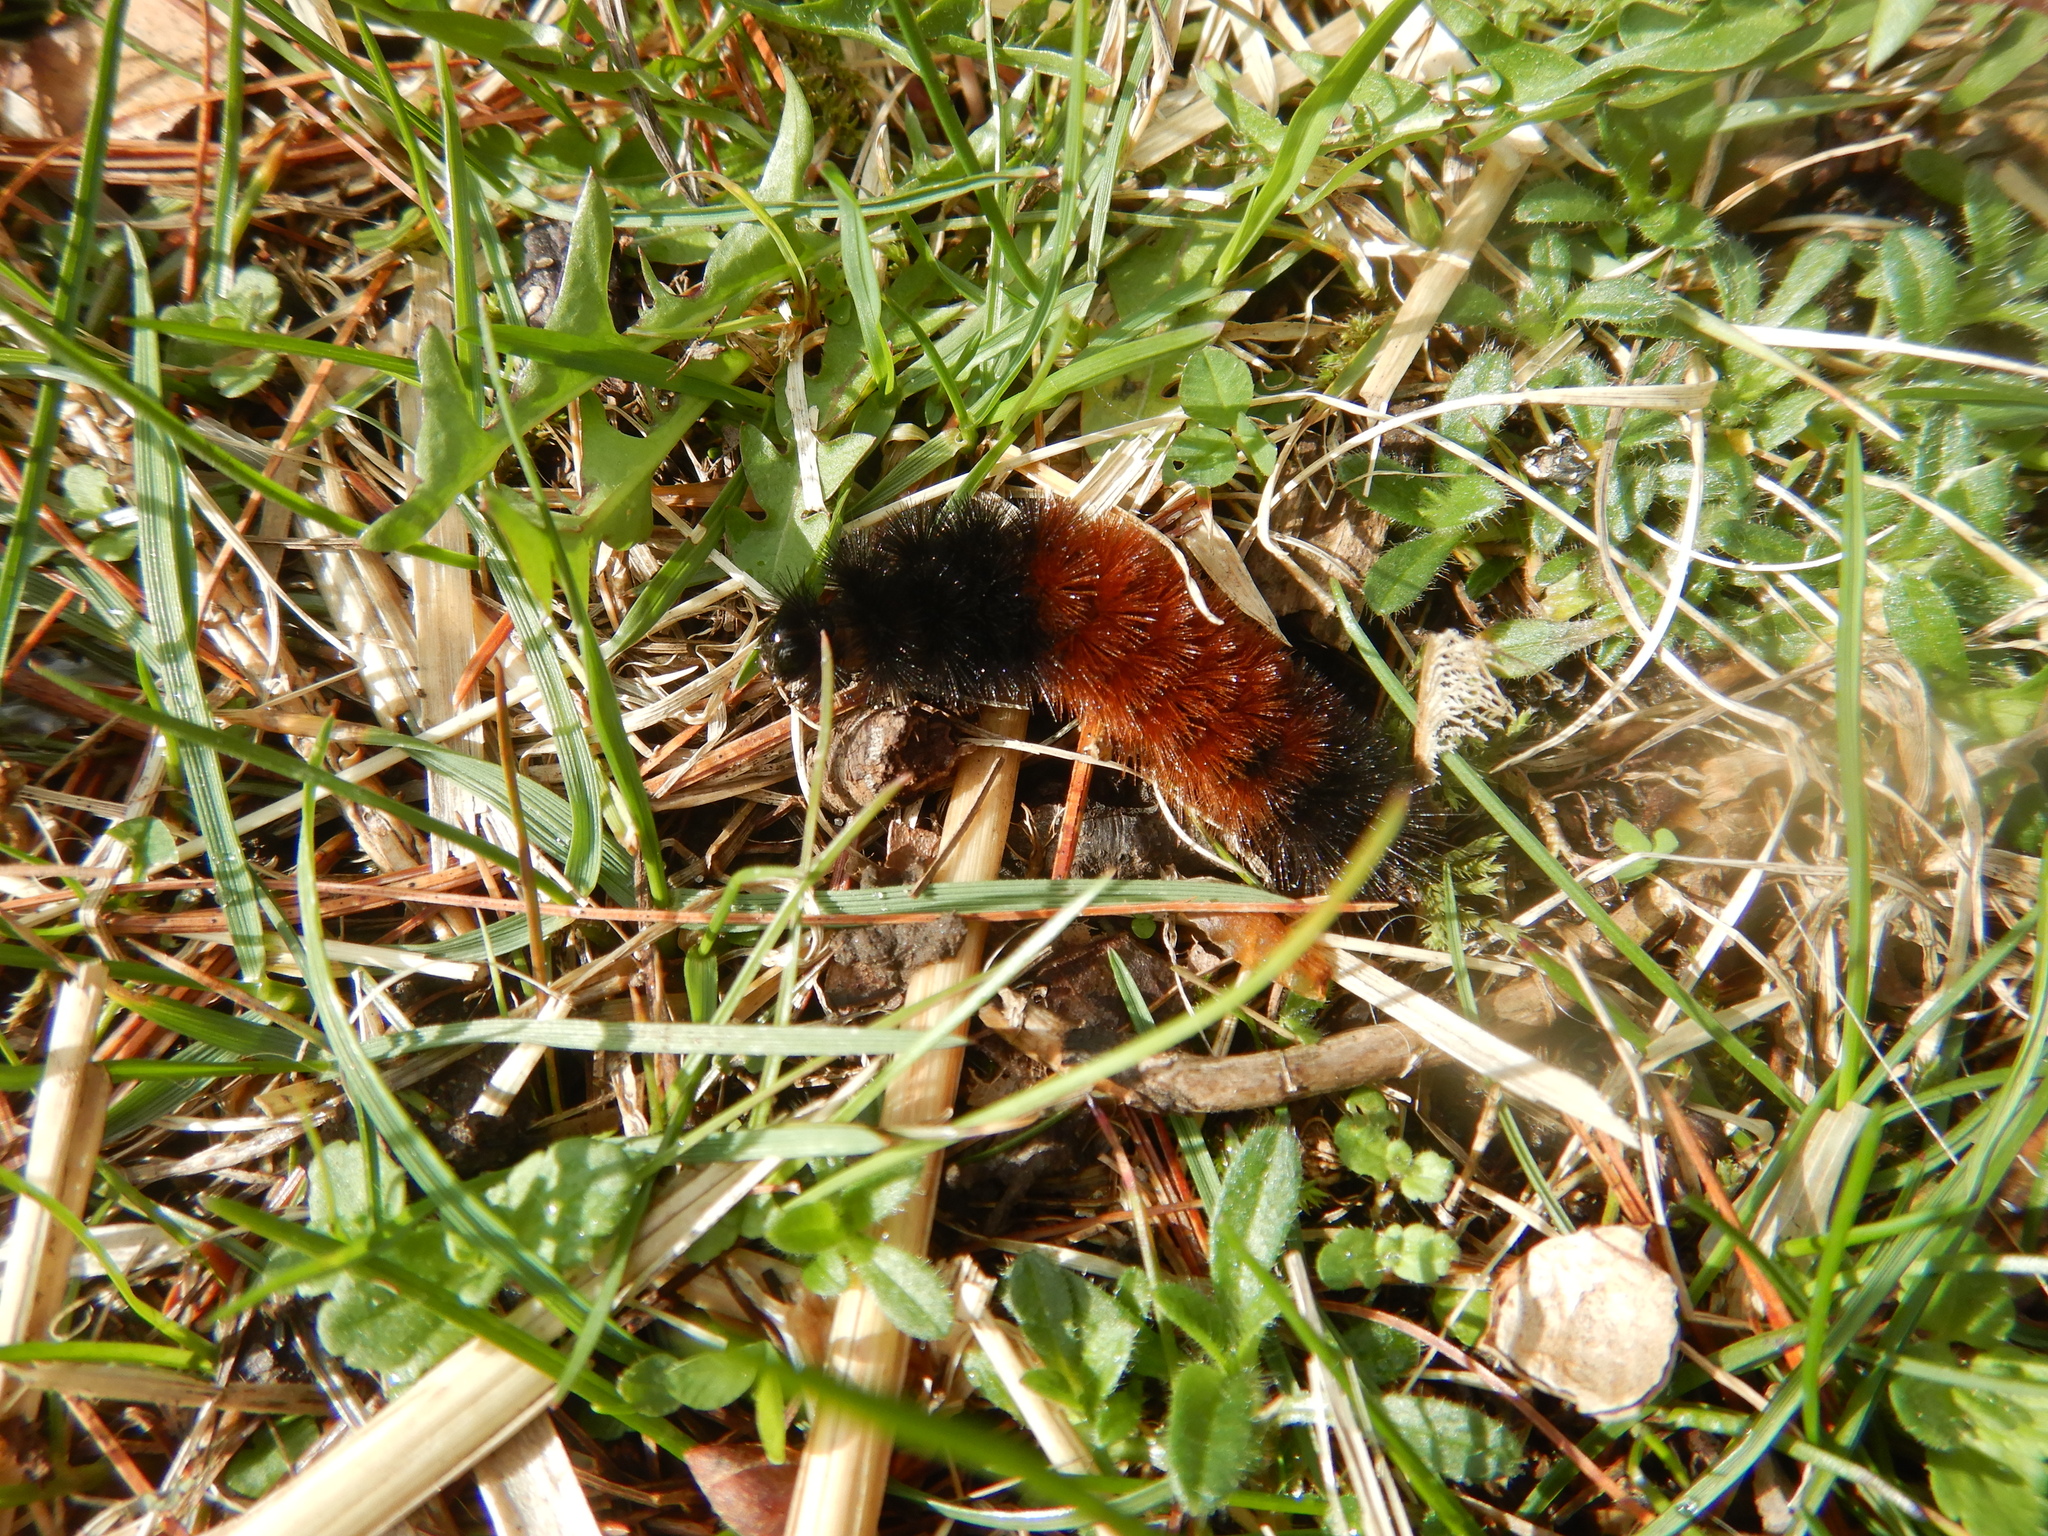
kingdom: Animalia
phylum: Arthropoda
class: Insecta
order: Lepidoptera
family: Erebidae
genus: Pyrrharctia
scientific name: Pyrrharctia isabella
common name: Isabella tiger moth
